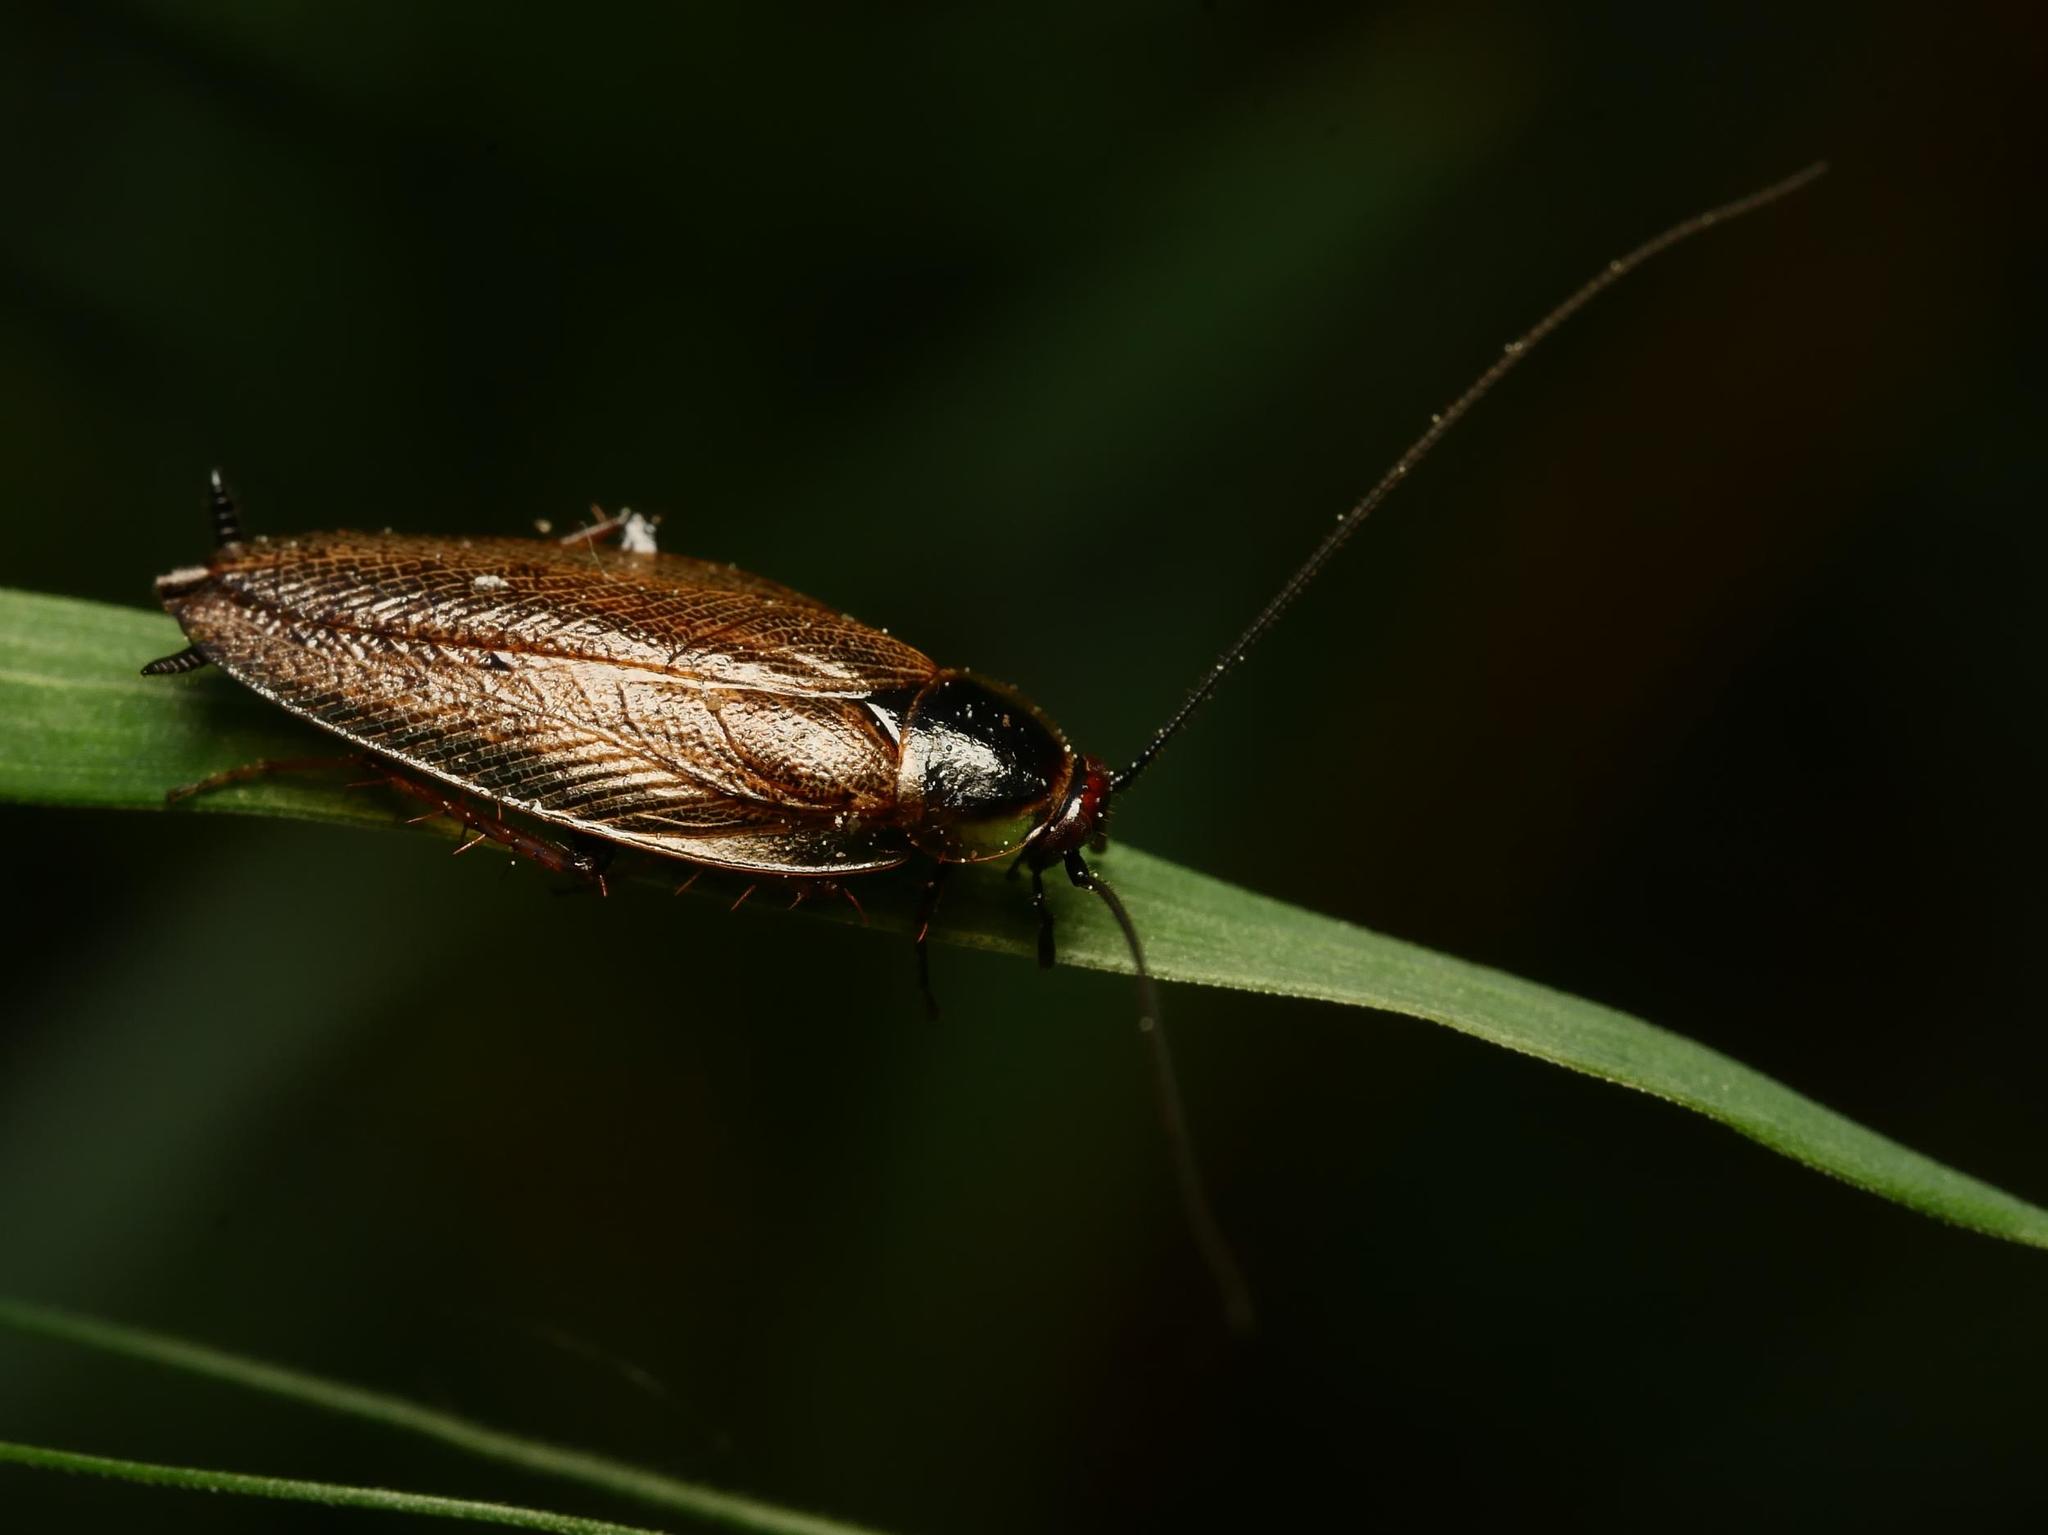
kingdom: Animalia
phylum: Arthropoda
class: Insecta
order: Blattodea
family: Ectobiidae
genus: Ectobius
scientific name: Ectobius lapponicus
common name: Dusky cockroach
